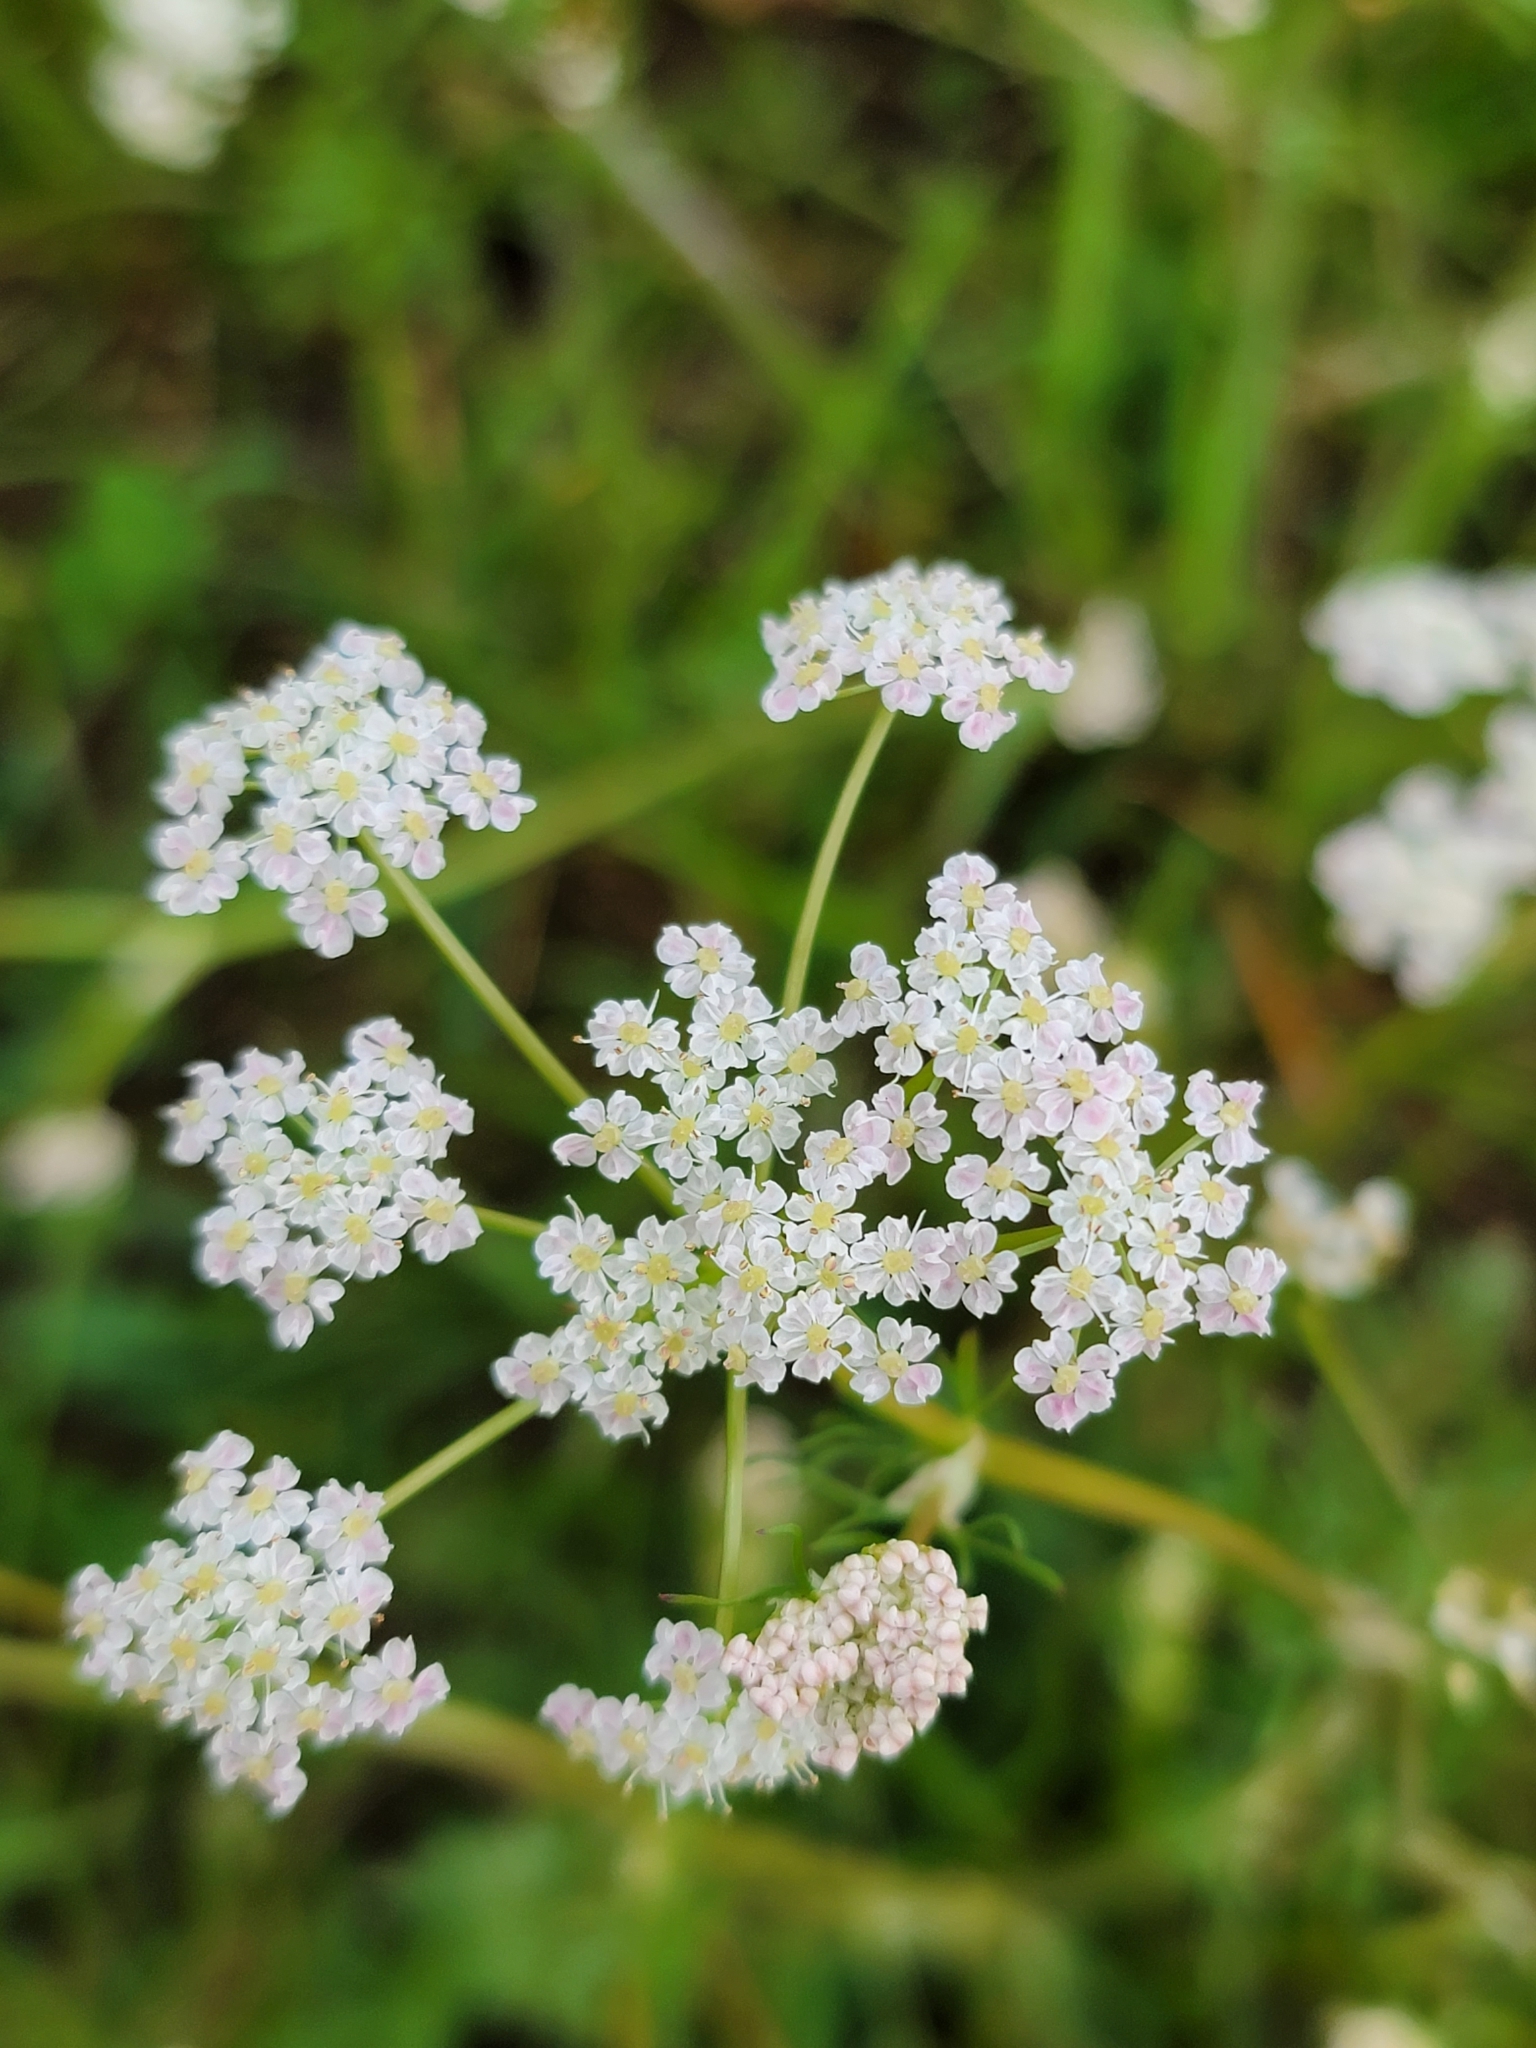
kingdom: Plantae
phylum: Tracheophyta
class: Magnoliopsida
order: Apiales
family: Apiaceae
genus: Carum
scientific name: Carum carvi
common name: Caraway
